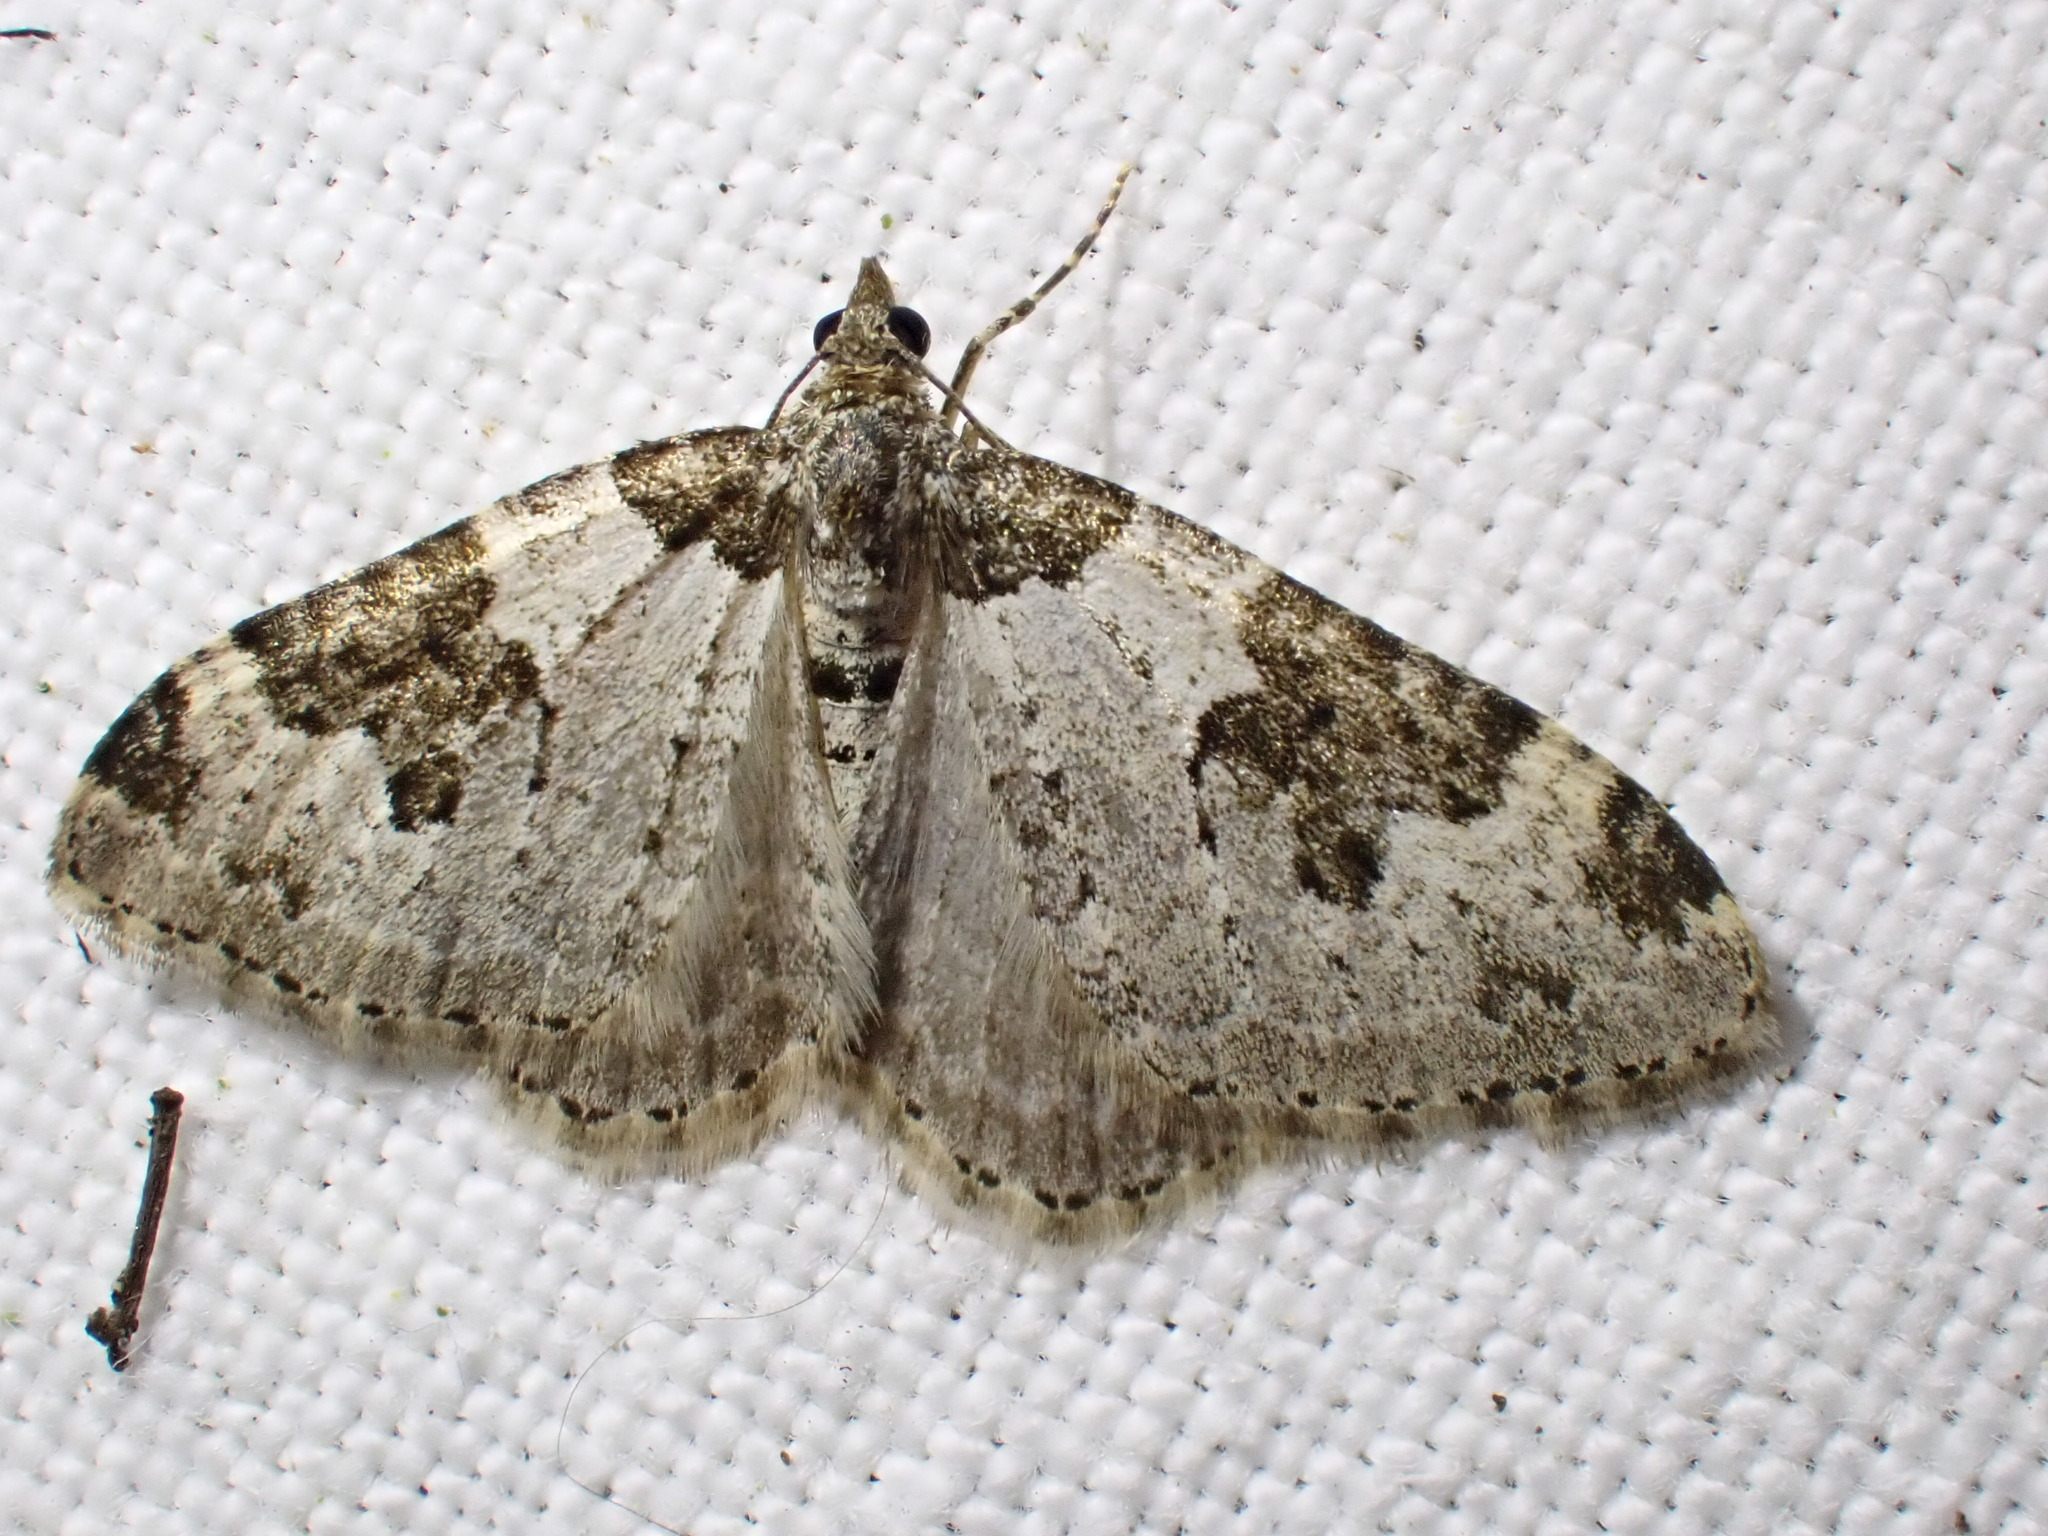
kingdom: Animalia
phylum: Arthropoda
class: Insecta
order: Lepidoptera
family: Geometridae
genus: Xanthorhoe
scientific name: Xanthorhoe fluctuata
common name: Garden carpet
